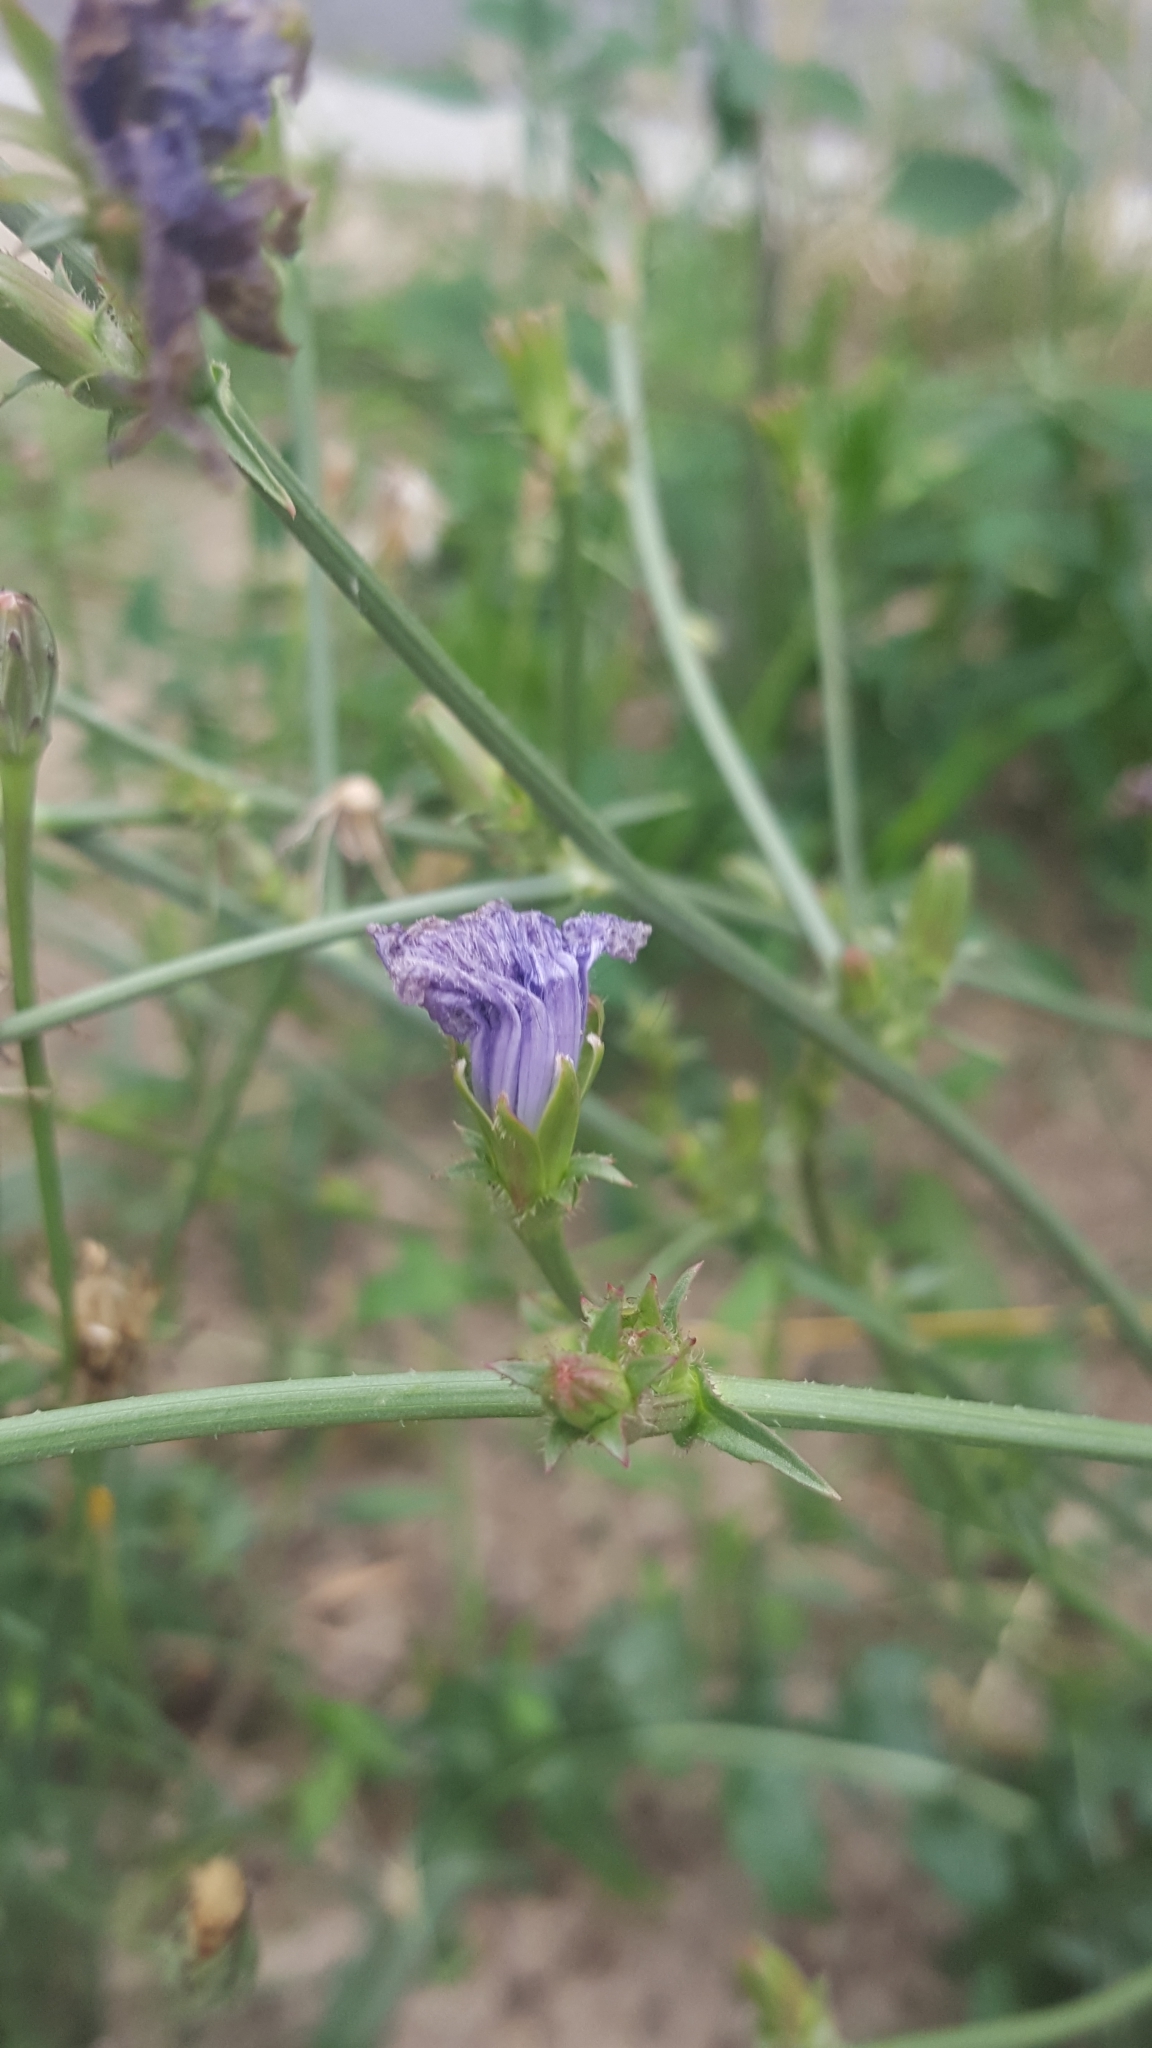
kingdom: Plantae
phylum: Tracheophyta
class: Magnoliopsida
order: Asterales
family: Asteraceae
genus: Cichorium
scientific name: Cichorium intybus
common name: Chicory
